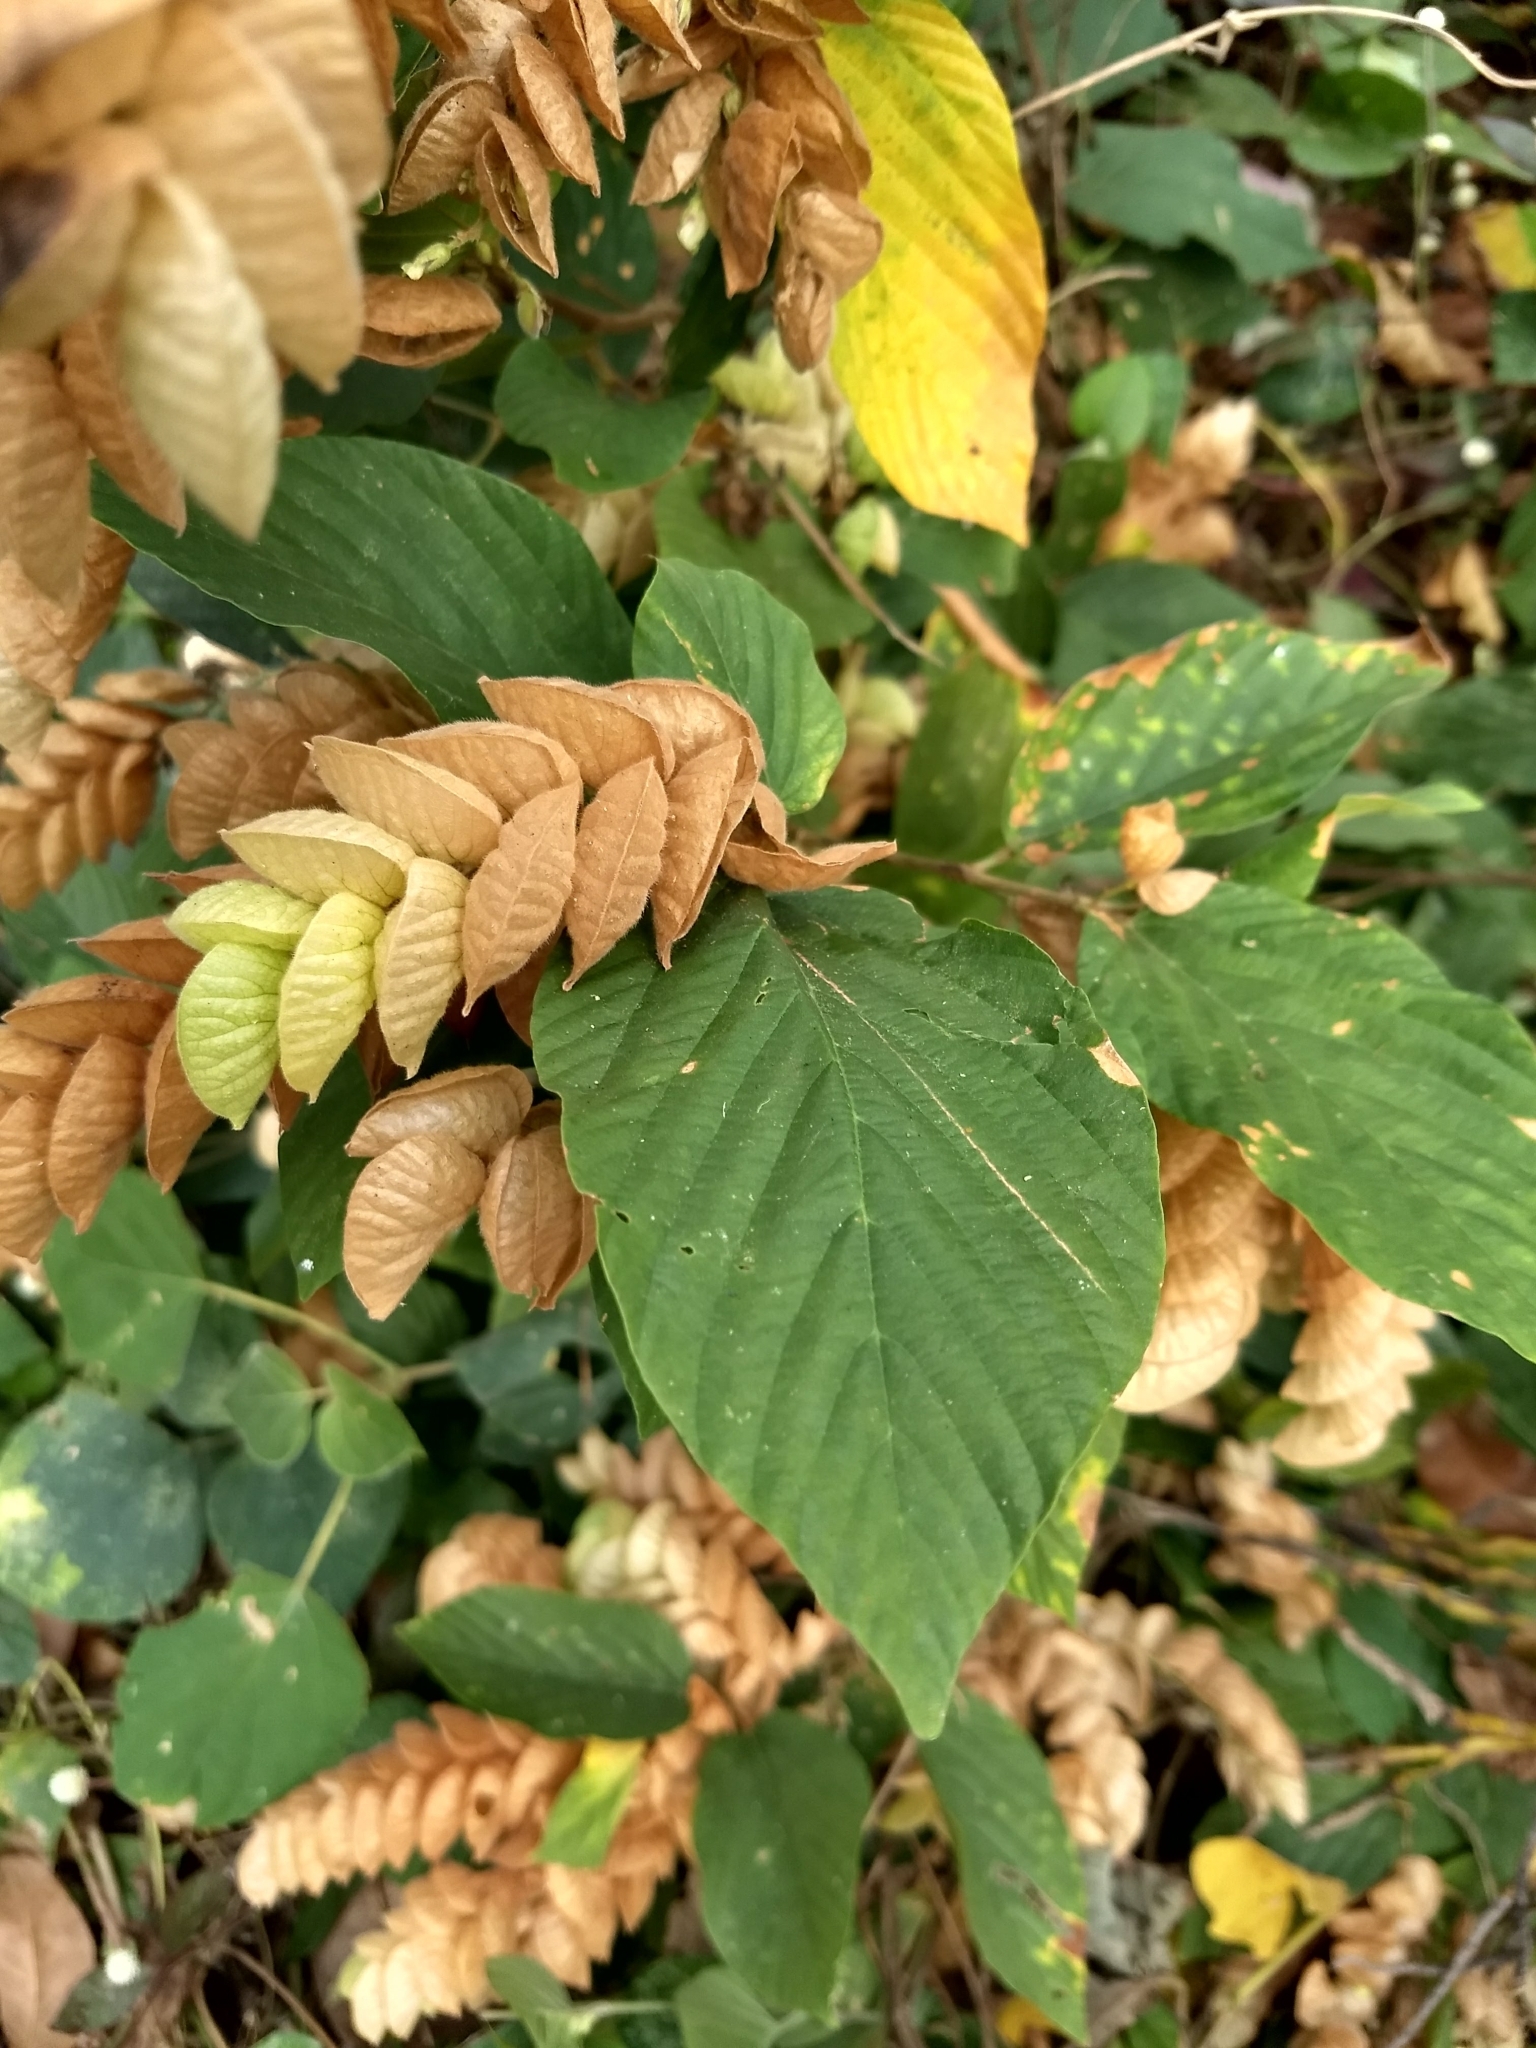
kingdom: Plantae
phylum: Tracheophyta
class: Magnoliopsida
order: Fabales
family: Fabaceae
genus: Flemingia
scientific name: Flemingia strobilifera
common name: Wild hops
